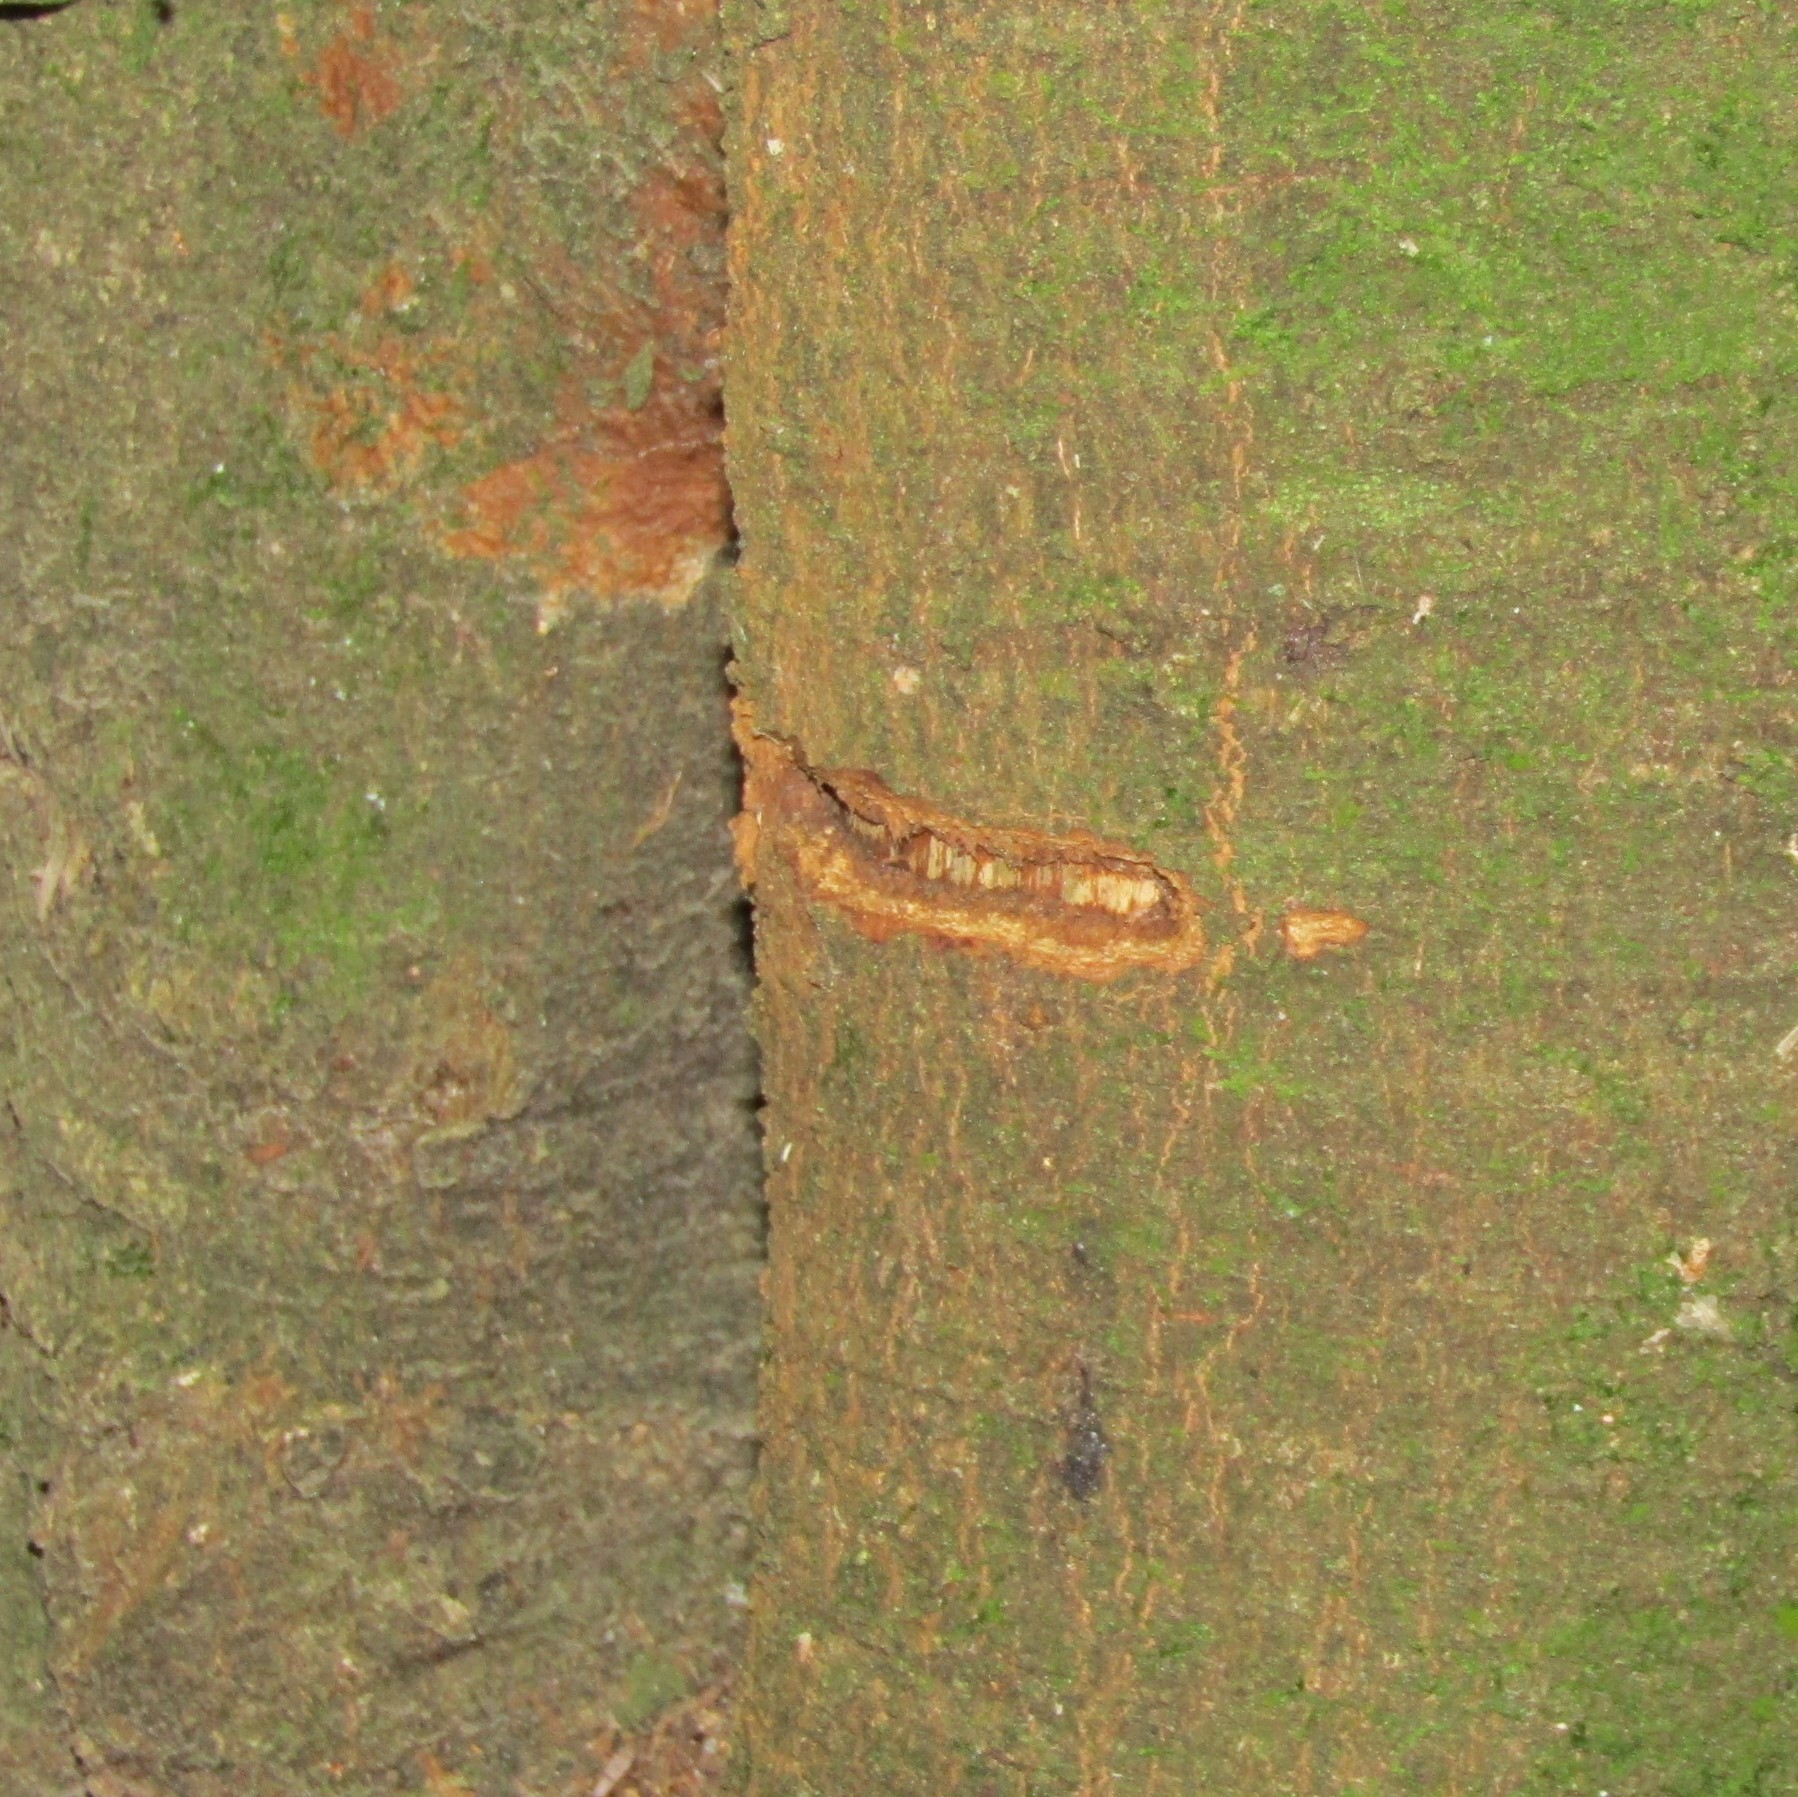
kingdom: Animalia
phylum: Chordata
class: Aves
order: Psittaciformes
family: Psittacidae
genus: Nestor
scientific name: Nestor meridionalis
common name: New zealand kaka
